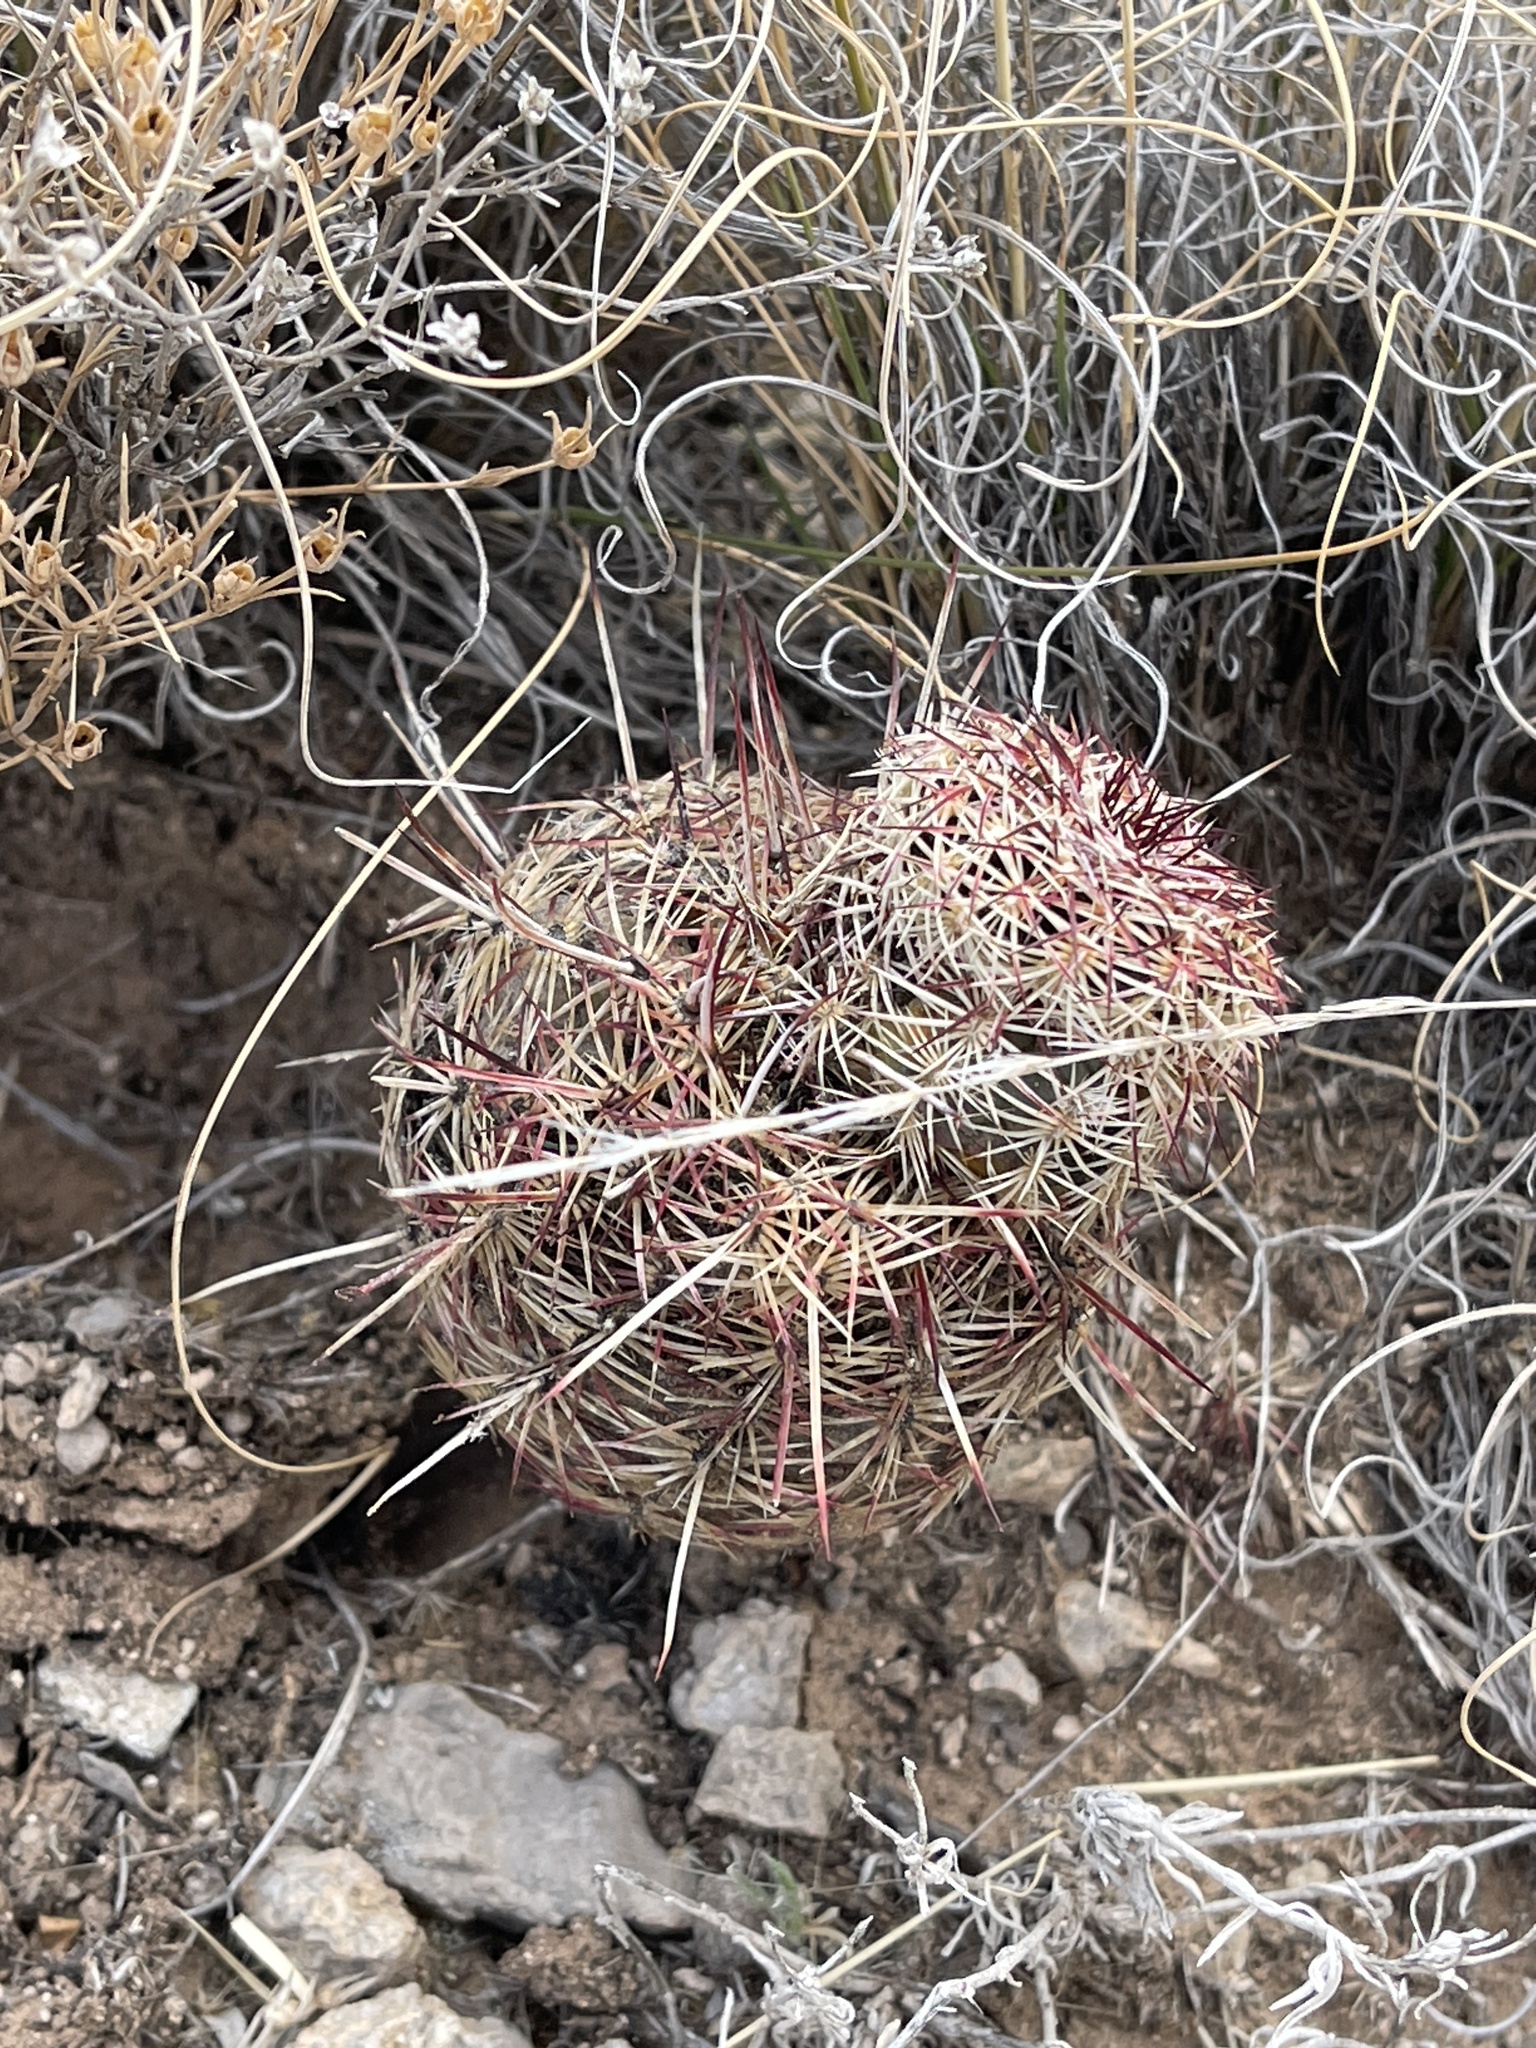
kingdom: Plantae
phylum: Tracheophyta
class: Magnoliopsida
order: Caryophyllales
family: Cactaceae
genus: Echinocereus
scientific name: Echinocereus viridiflorus
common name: Nylon hedgehog cactus
